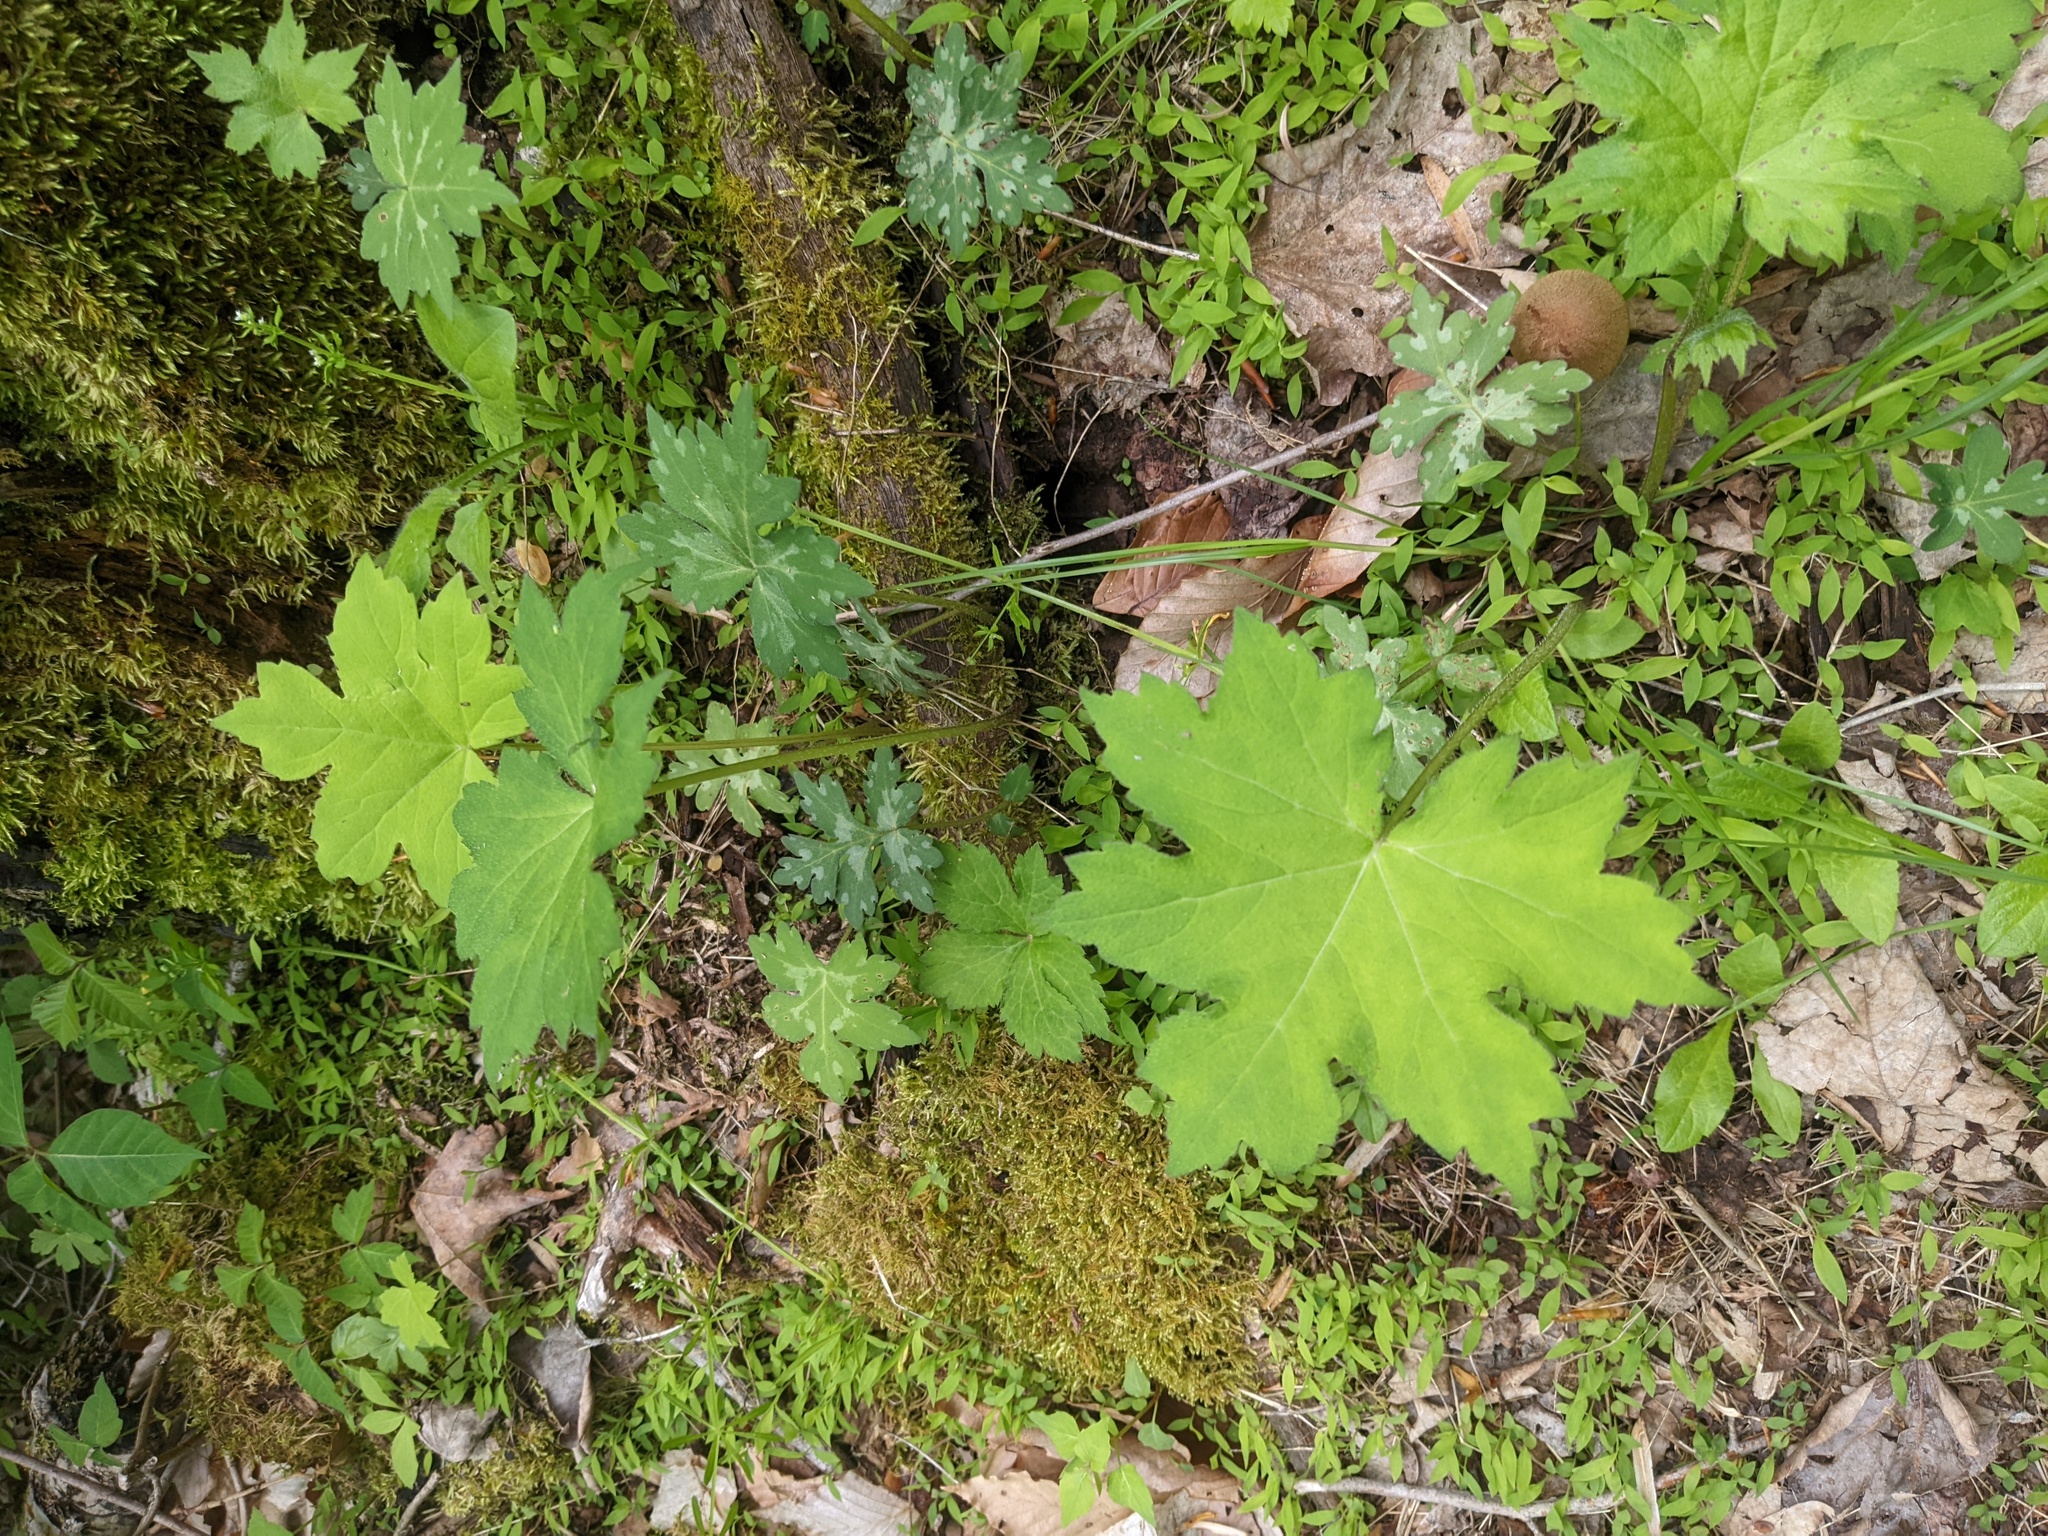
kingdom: Plantae
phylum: Tracheophyta
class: Magnoliopsida
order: Boraginales
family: Hydrophyllaceae
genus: Hydrophyllum
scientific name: Hydrophyllum canadense
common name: Canada waterleaf
